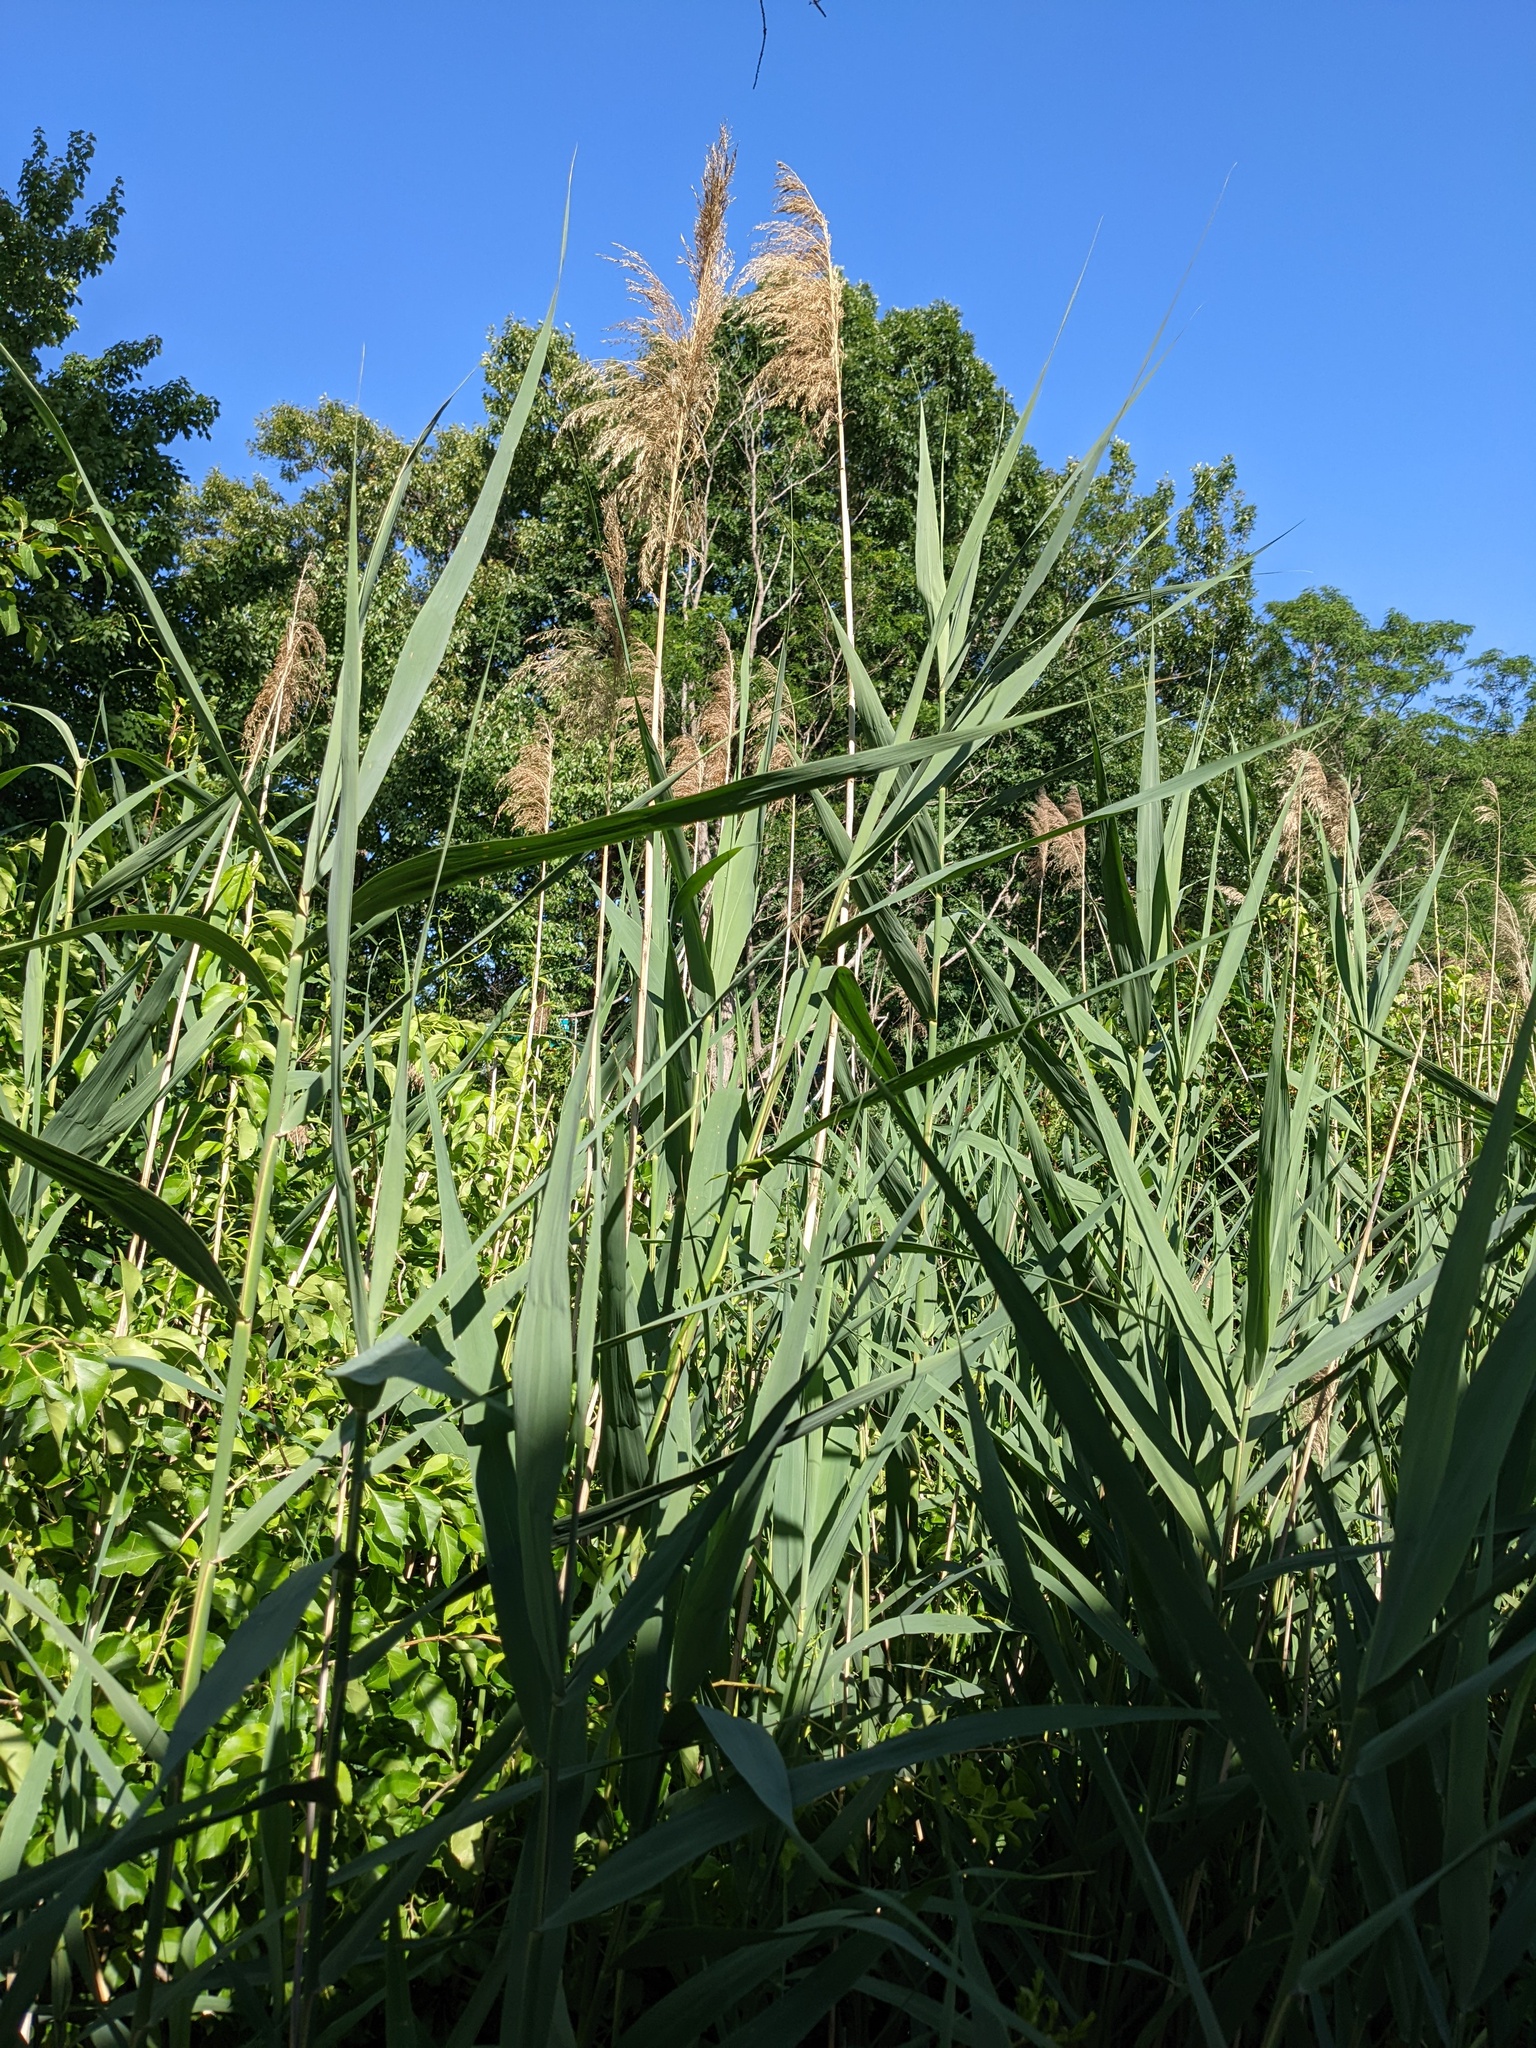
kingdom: Plantae
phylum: Tracheophyta
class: Liliopsida
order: Poales
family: Poaceae
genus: Phragmites
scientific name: Phragmites australis
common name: Common reed
